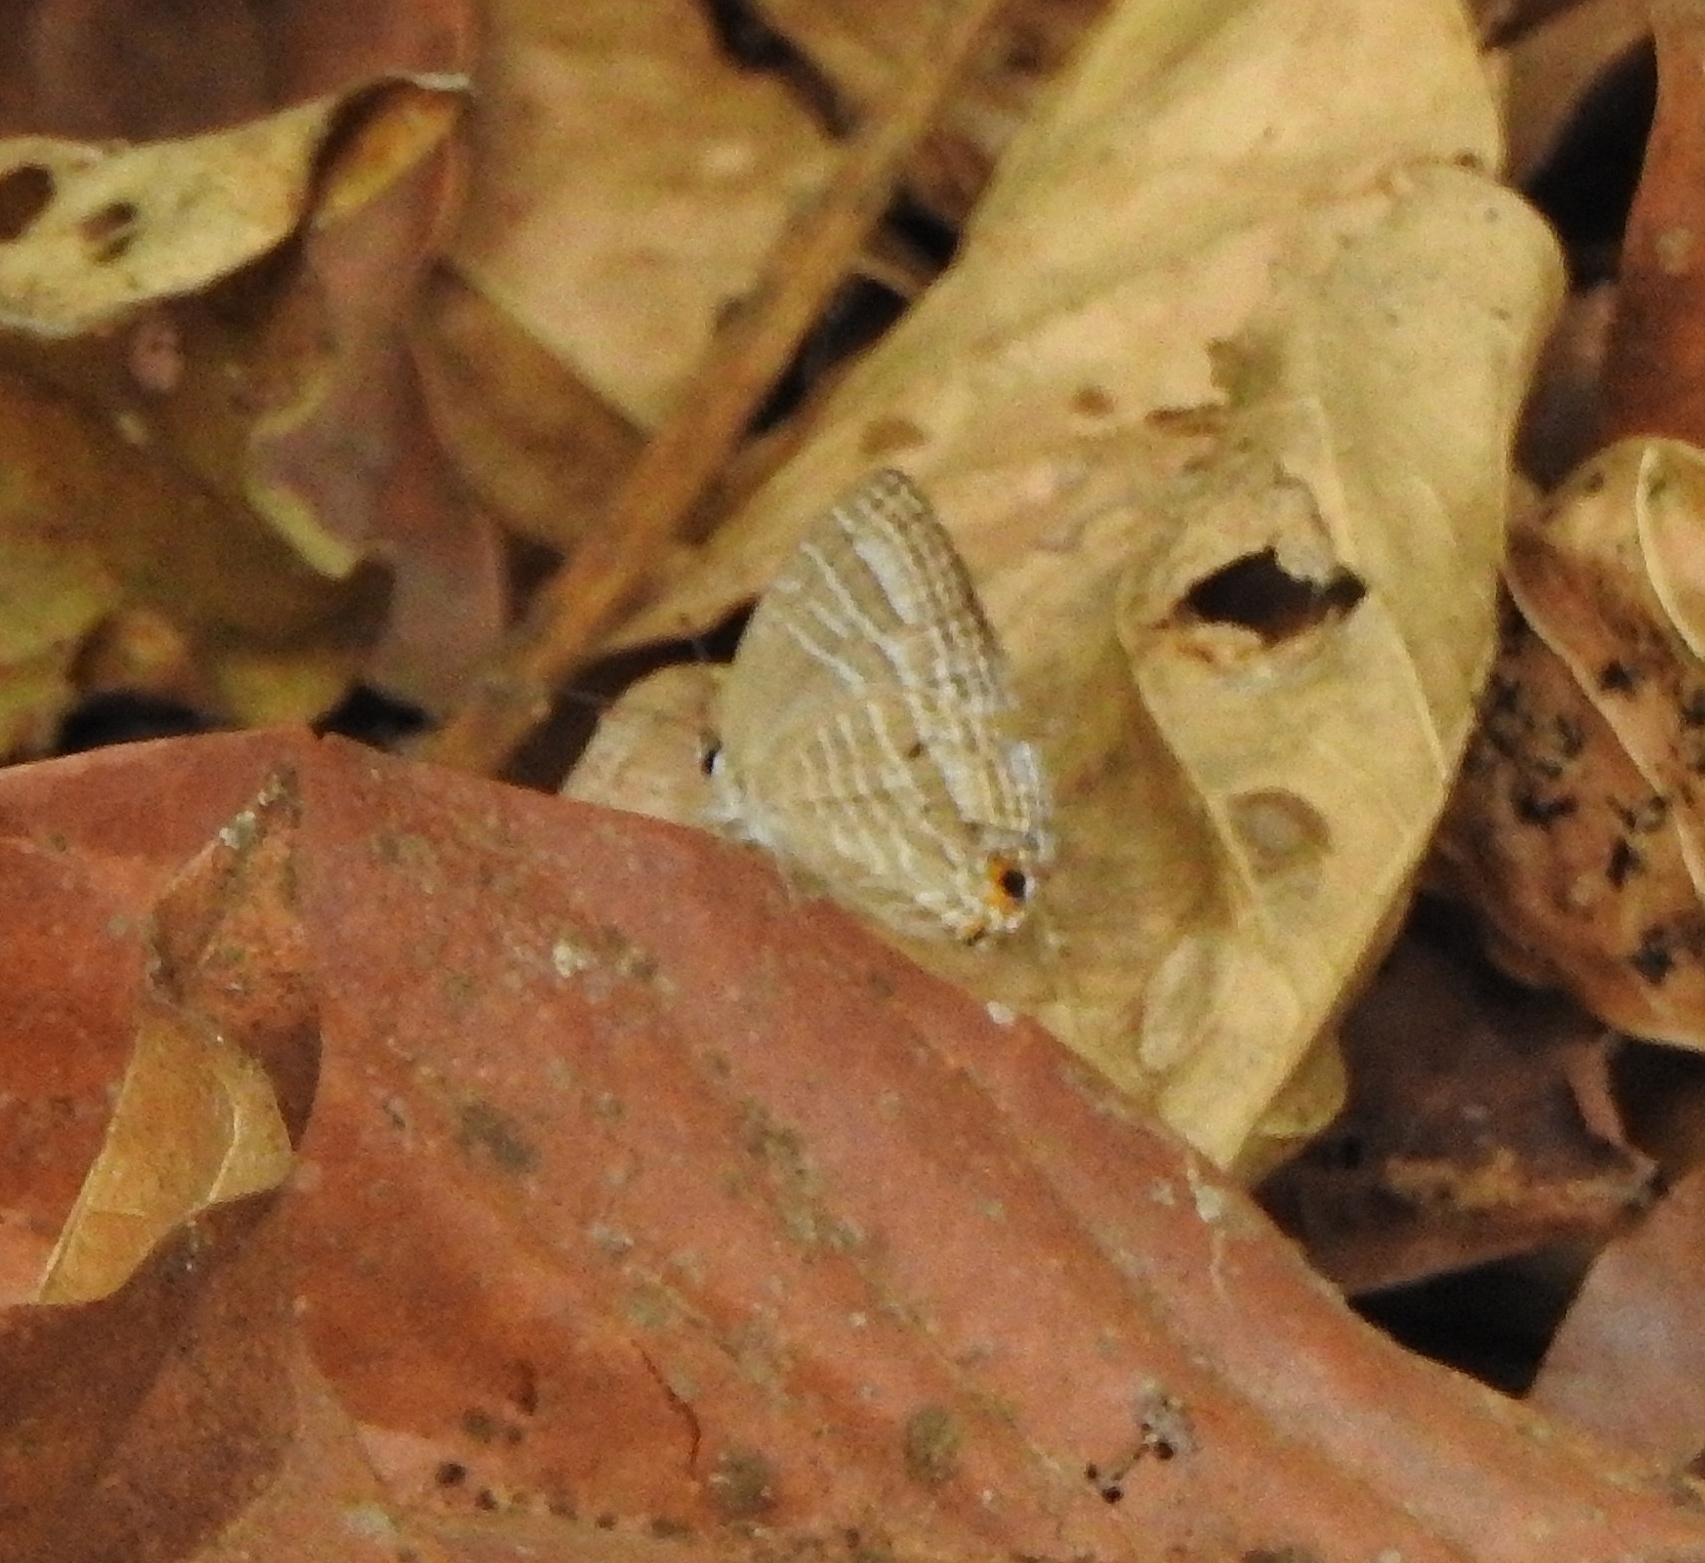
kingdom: Animalia
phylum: Arthropoda
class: Insecta
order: Lepidoptera
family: Lycaenidae
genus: Jamides
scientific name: Jamides celeno
